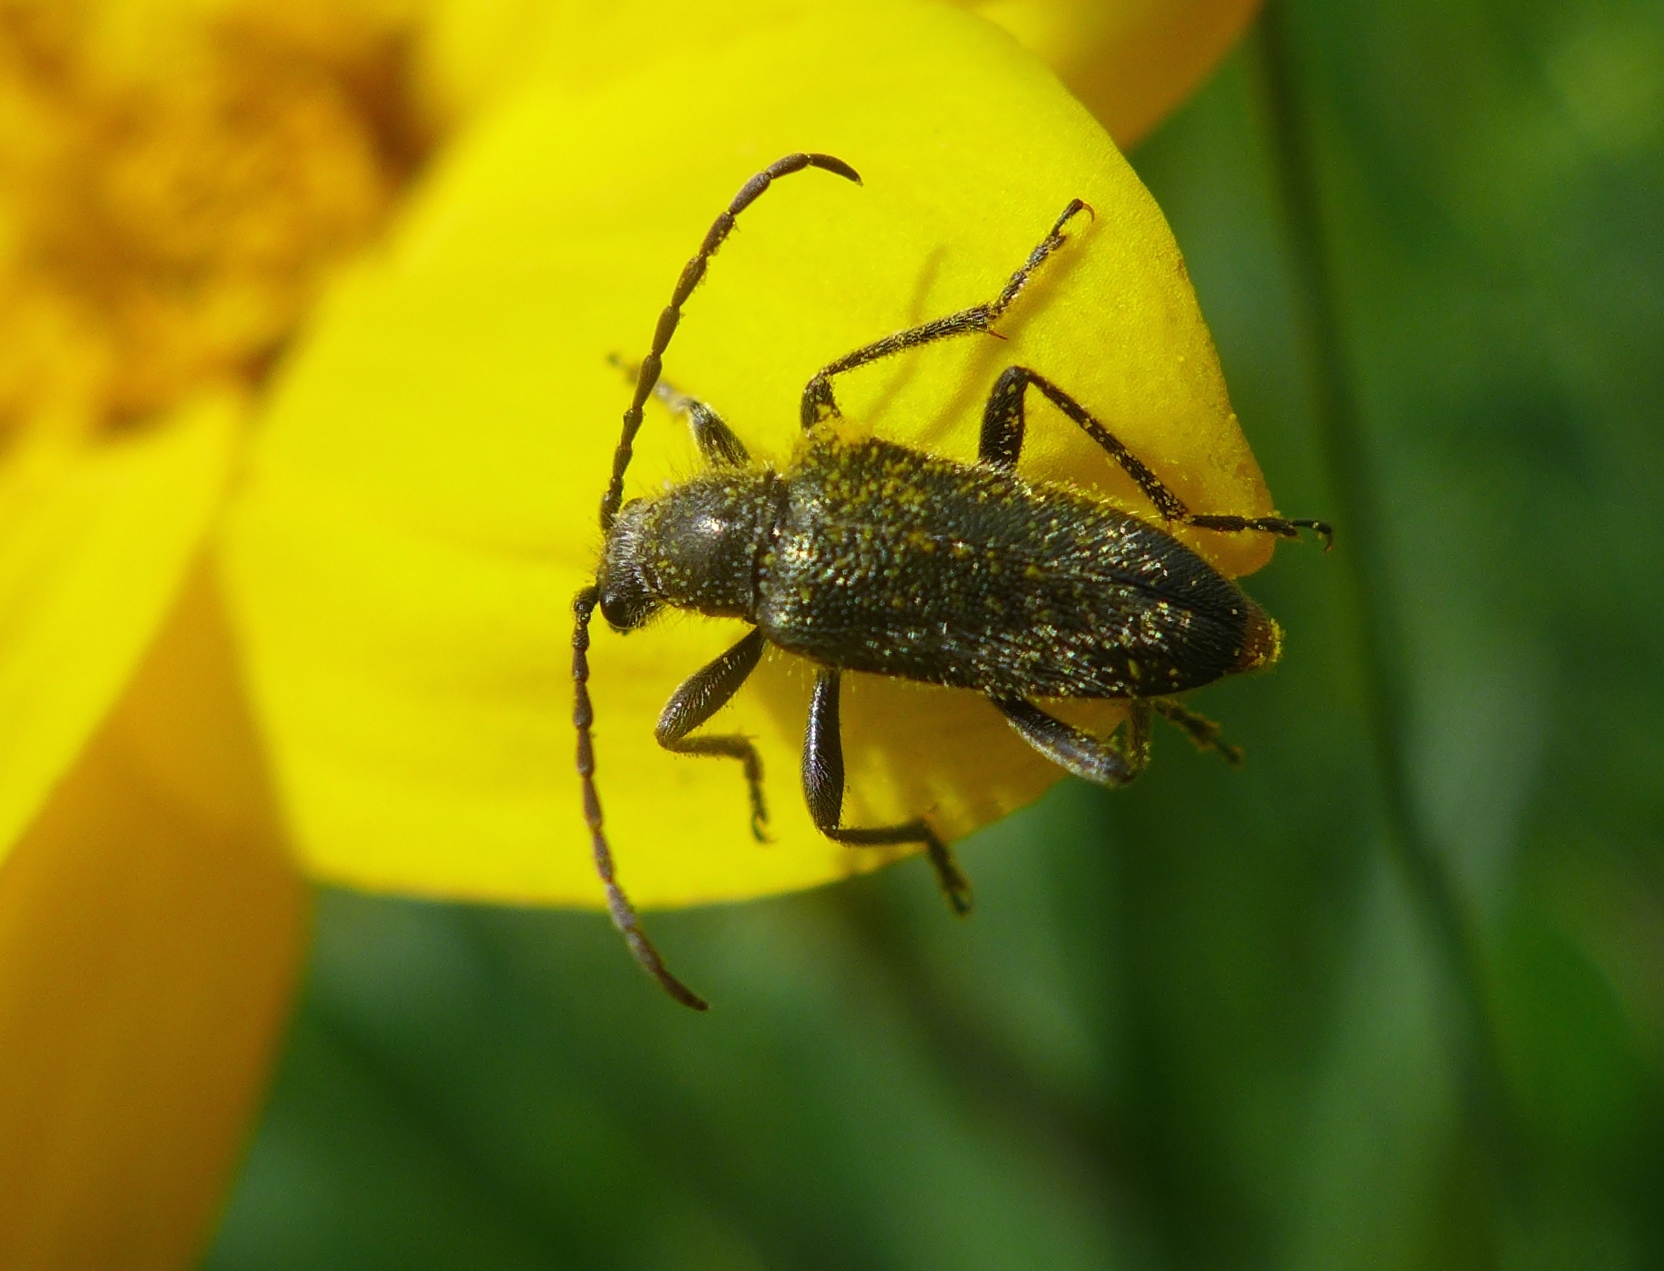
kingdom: Animalia
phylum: Arthropoda
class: Insecta
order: Coleoptera
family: Cerambycidae
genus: Brachysomida
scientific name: Brachysomida californica
